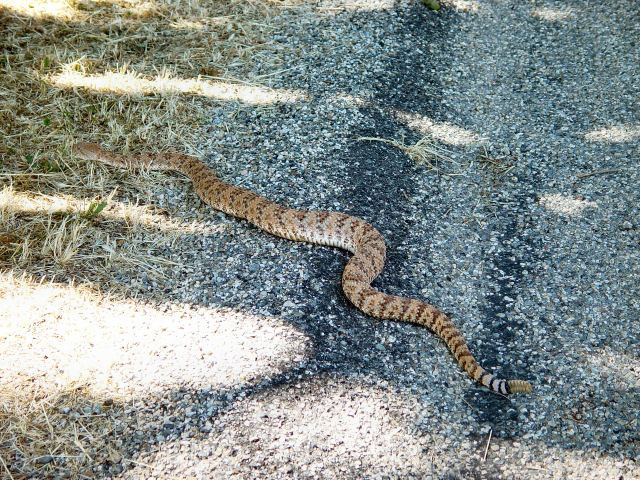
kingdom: Animalia
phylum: Chordata
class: Squamata
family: Viperidae
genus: Crotalus
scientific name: Crotalus pyrrhus
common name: Southwestern speckled rattlesnake
